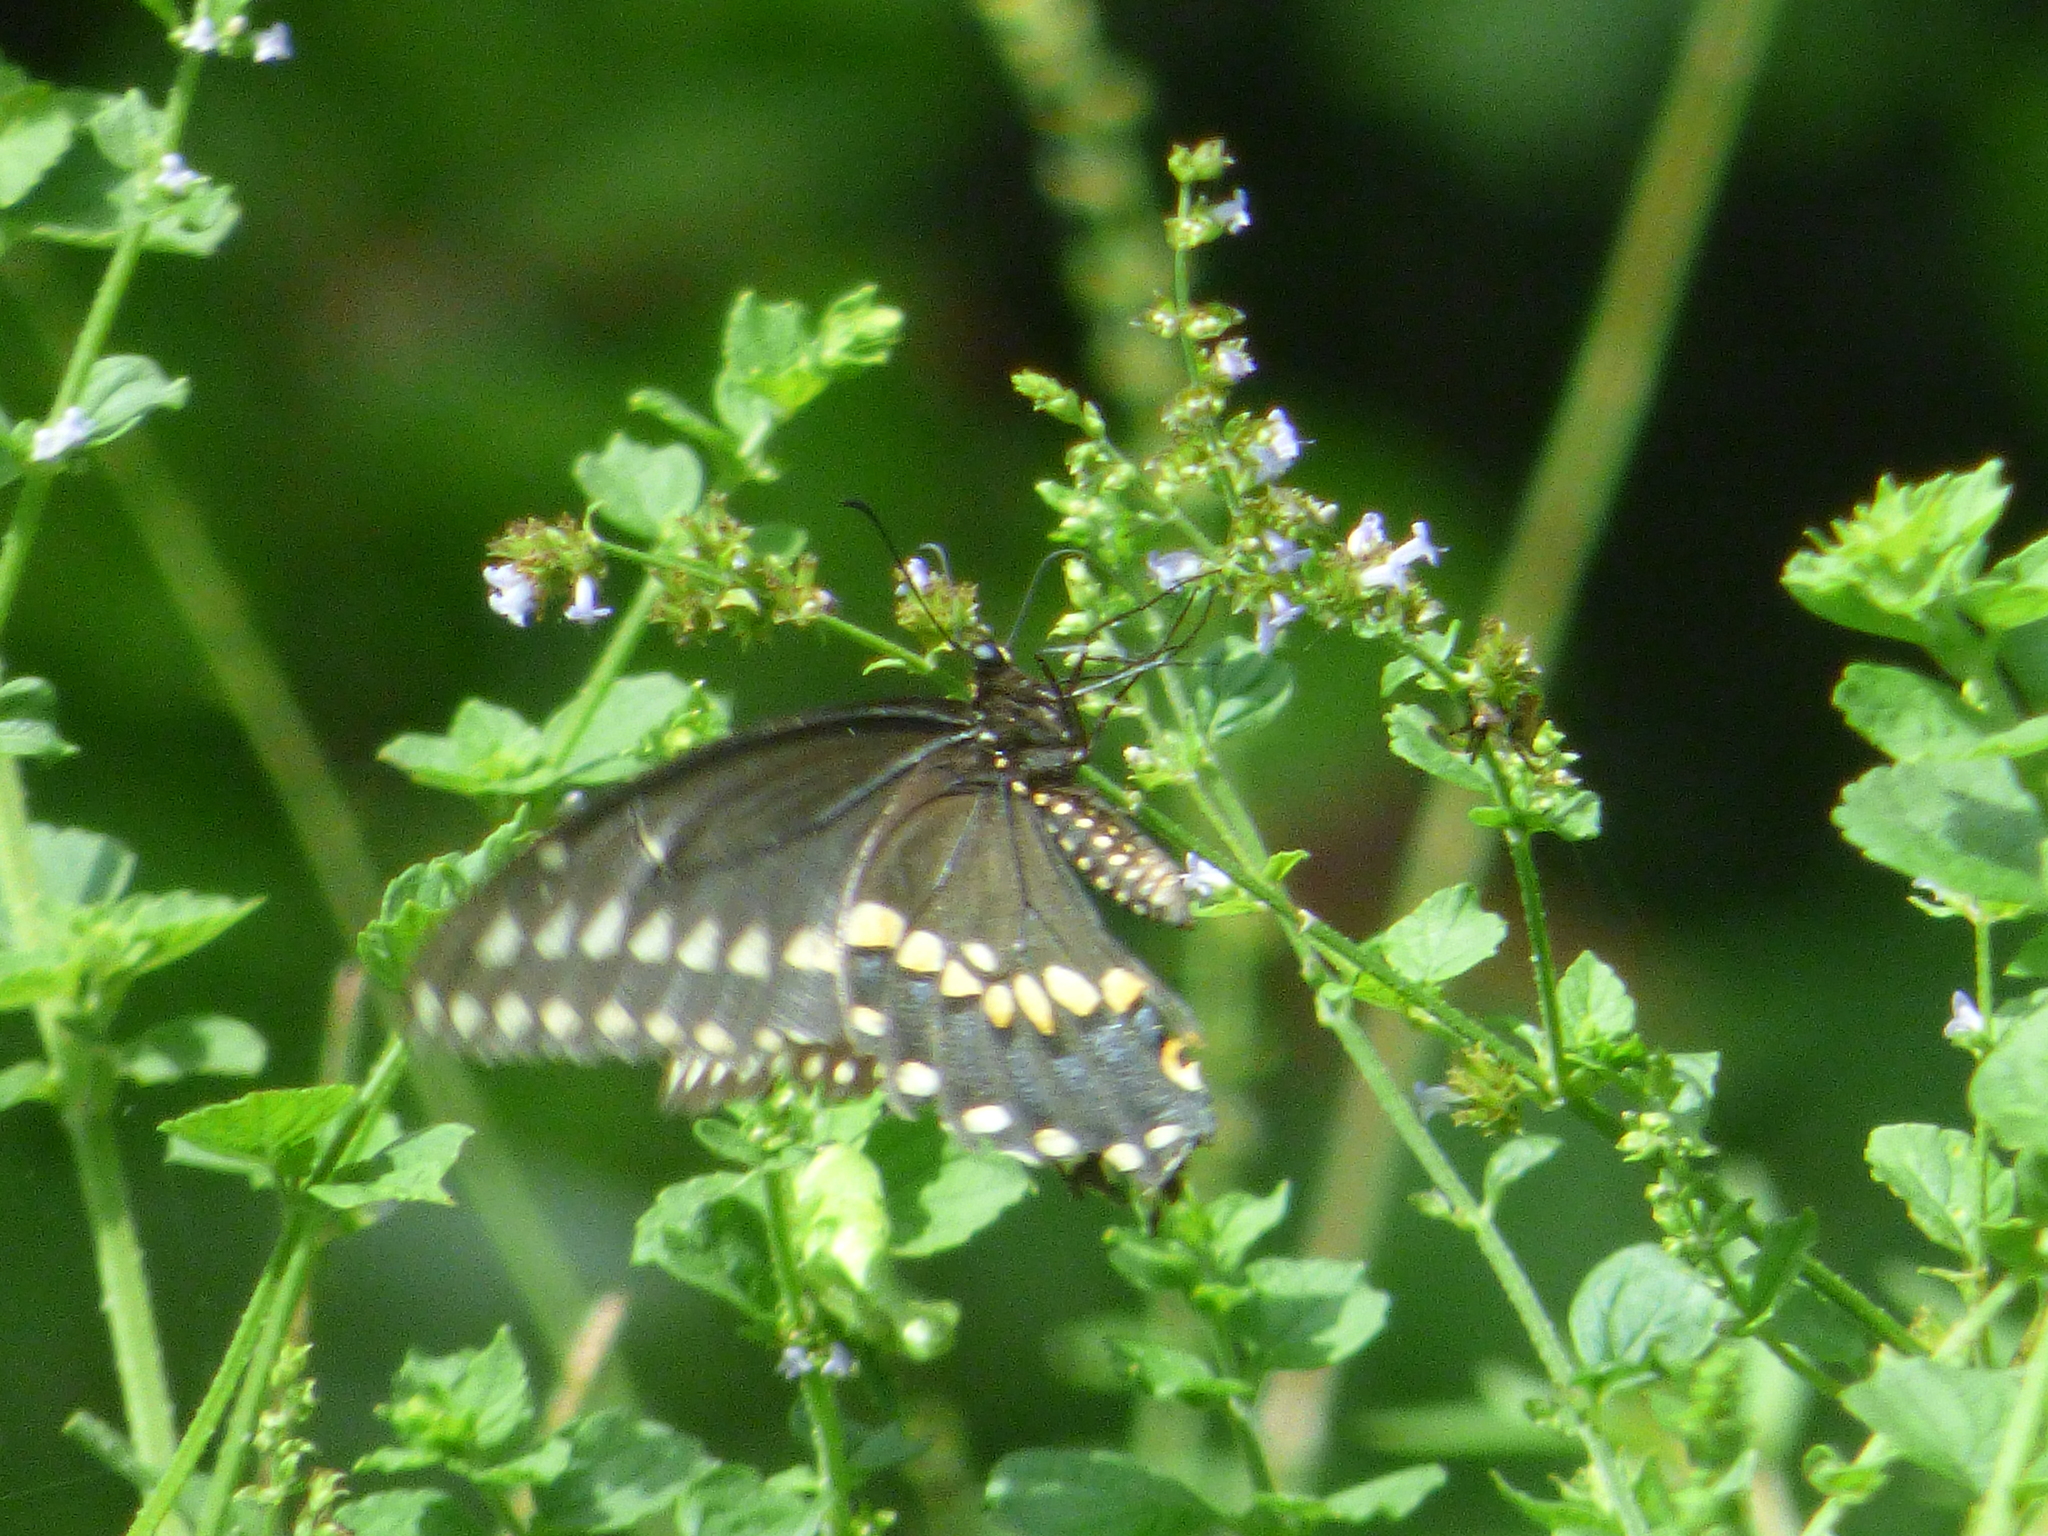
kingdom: Animalia
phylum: Arthropoda
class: Insecta
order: Lepidoptera
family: Papilionidae
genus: Papilio
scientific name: Papilio polyxenes
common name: Black swallowtail
